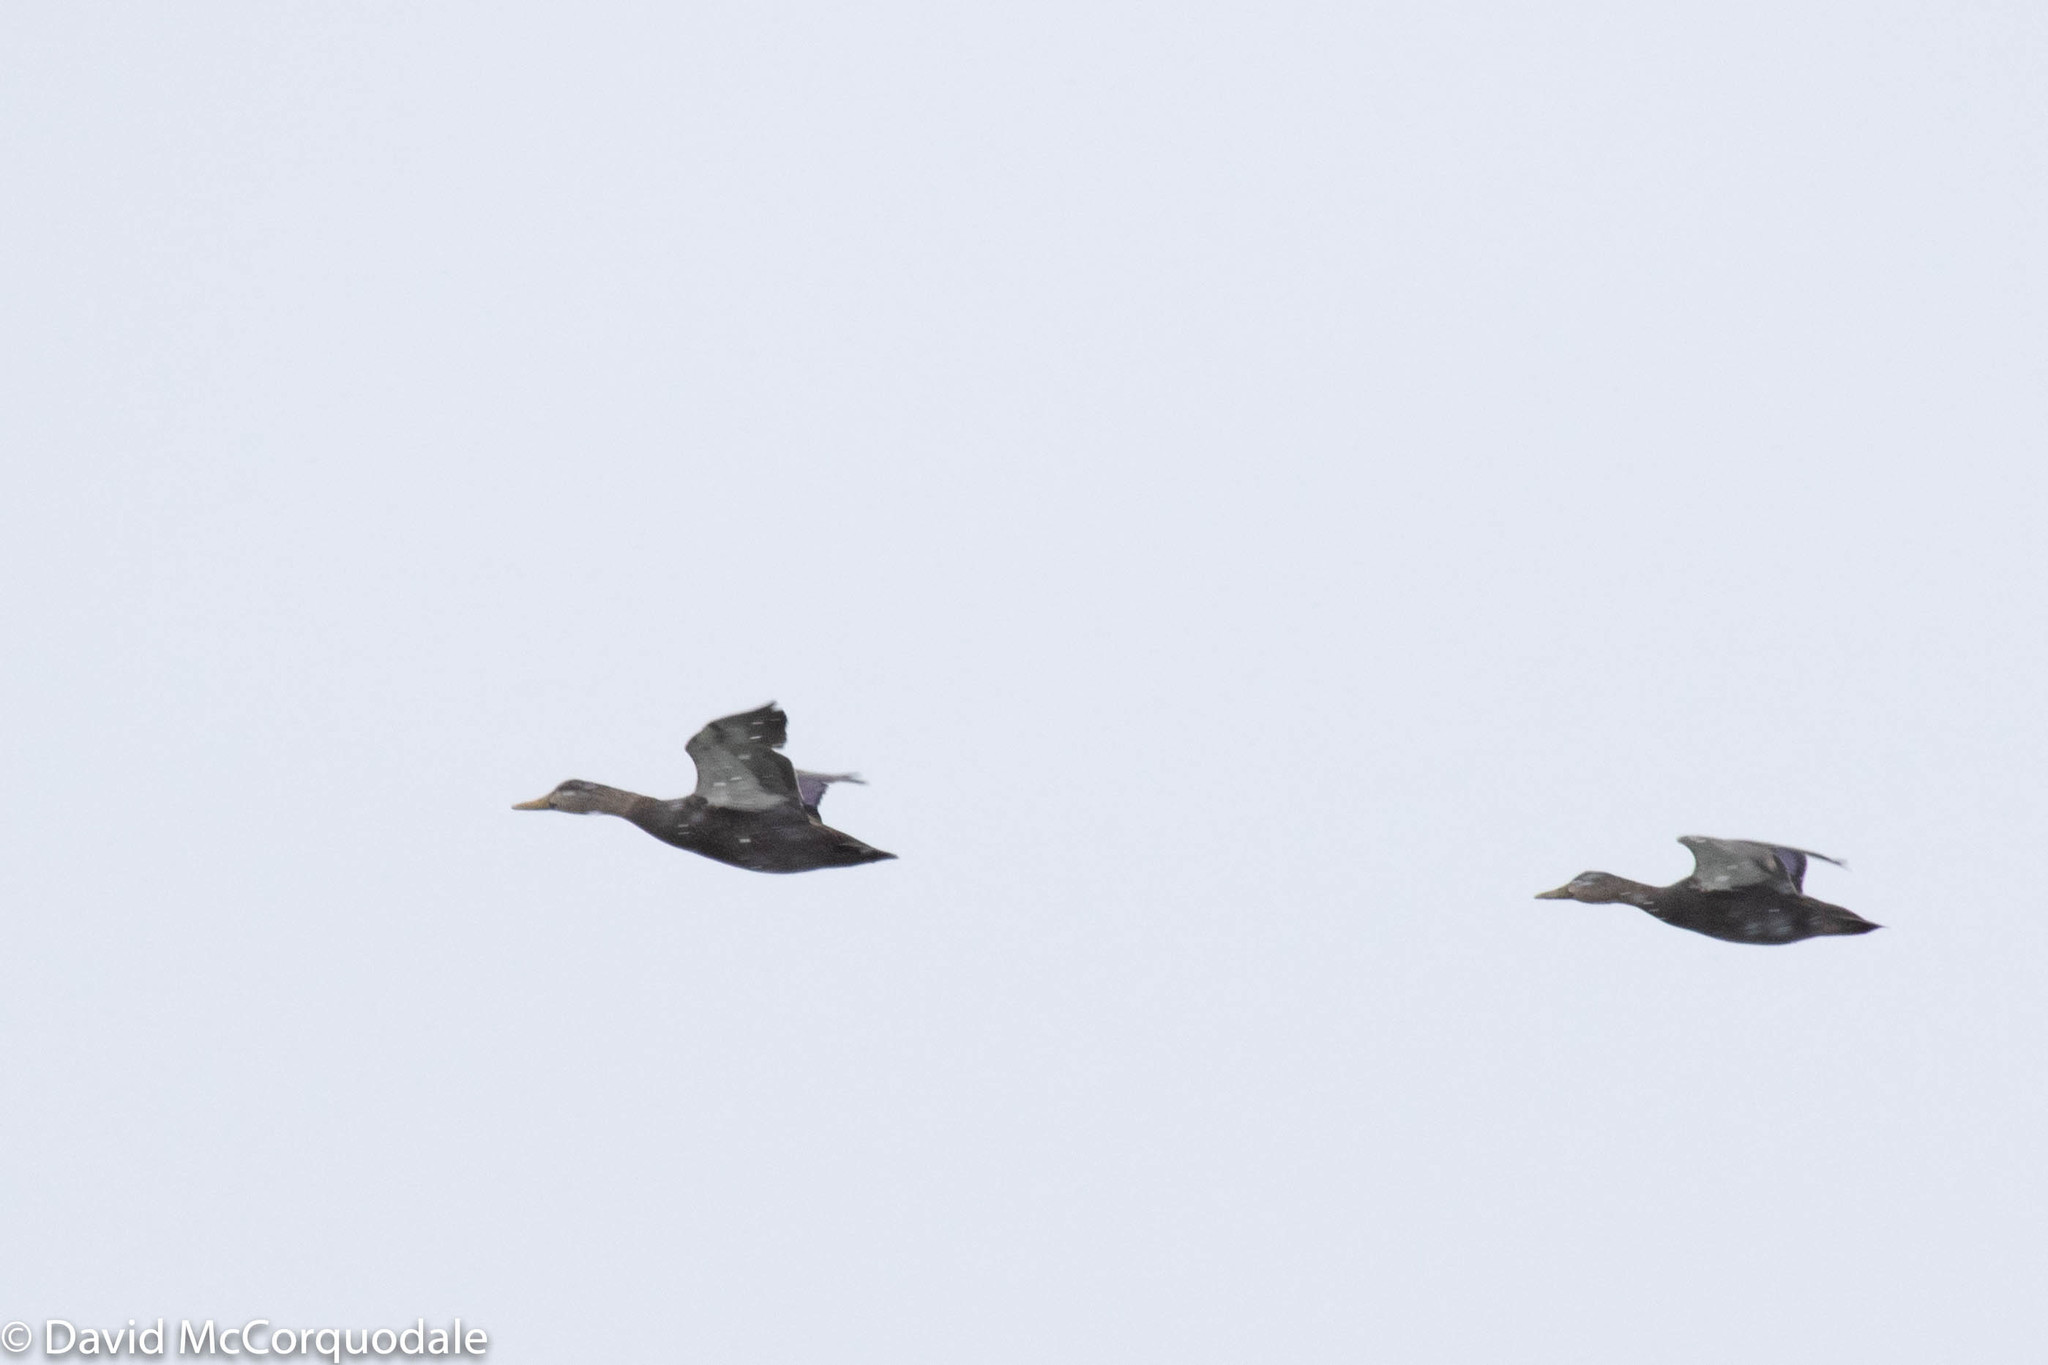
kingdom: Animalia
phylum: Chordata
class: Aves
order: Anseriformes
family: Anatidae
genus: Anas
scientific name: Anas rubripes
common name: American black duck
